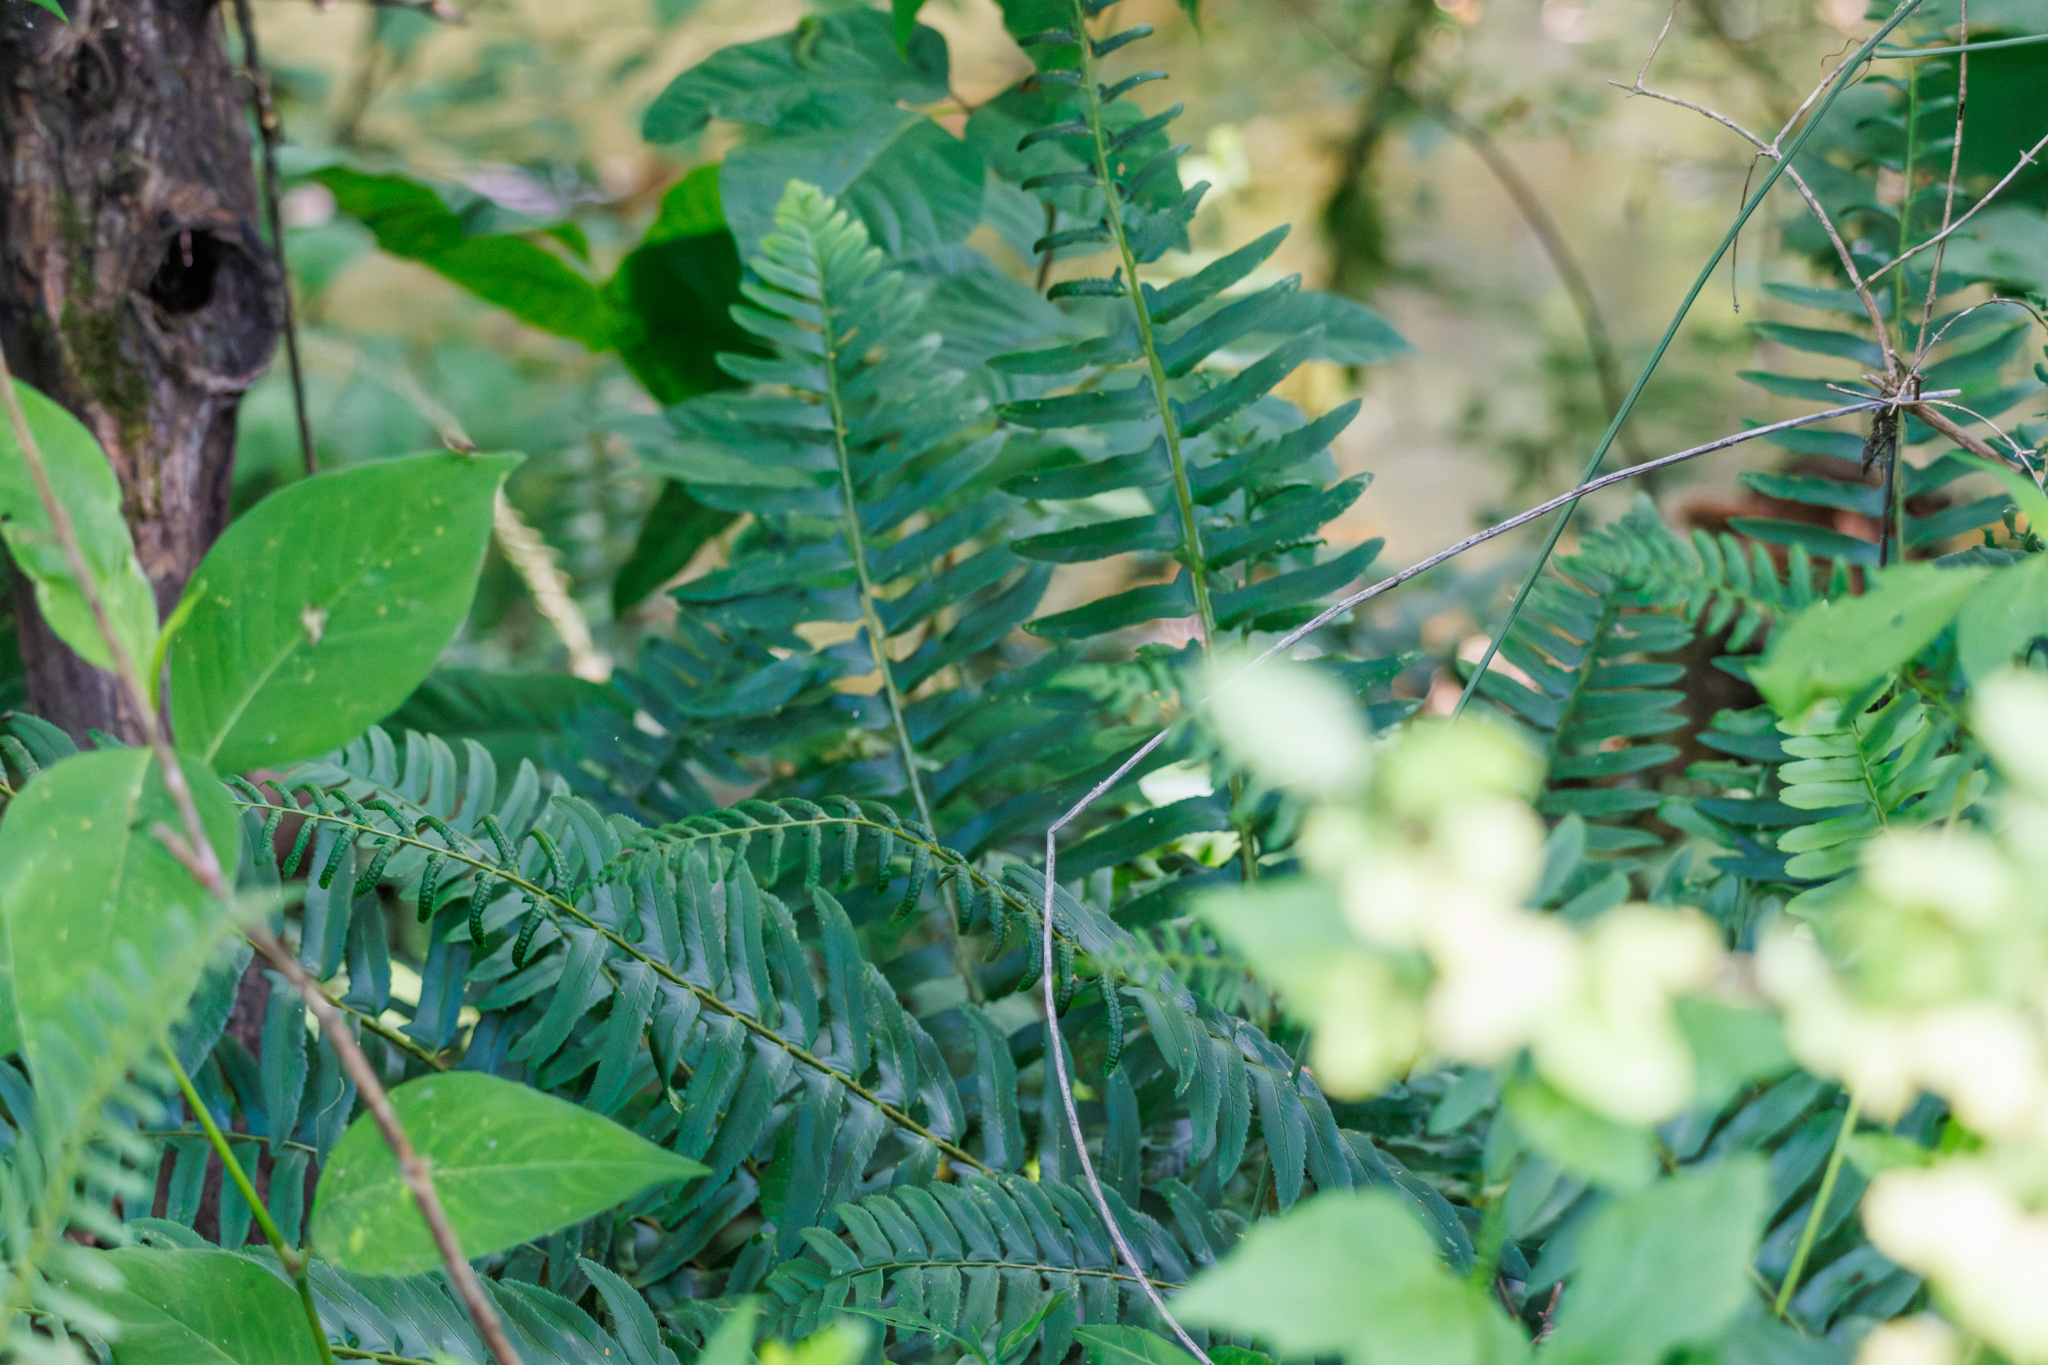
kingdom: Plantae
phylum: Tracheophyta
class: Polypodiopsida
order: Polypodiales
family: Dryopteridaceae
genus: Polystichum
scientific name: Polystichum acrostichoides
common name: Christmas fern
